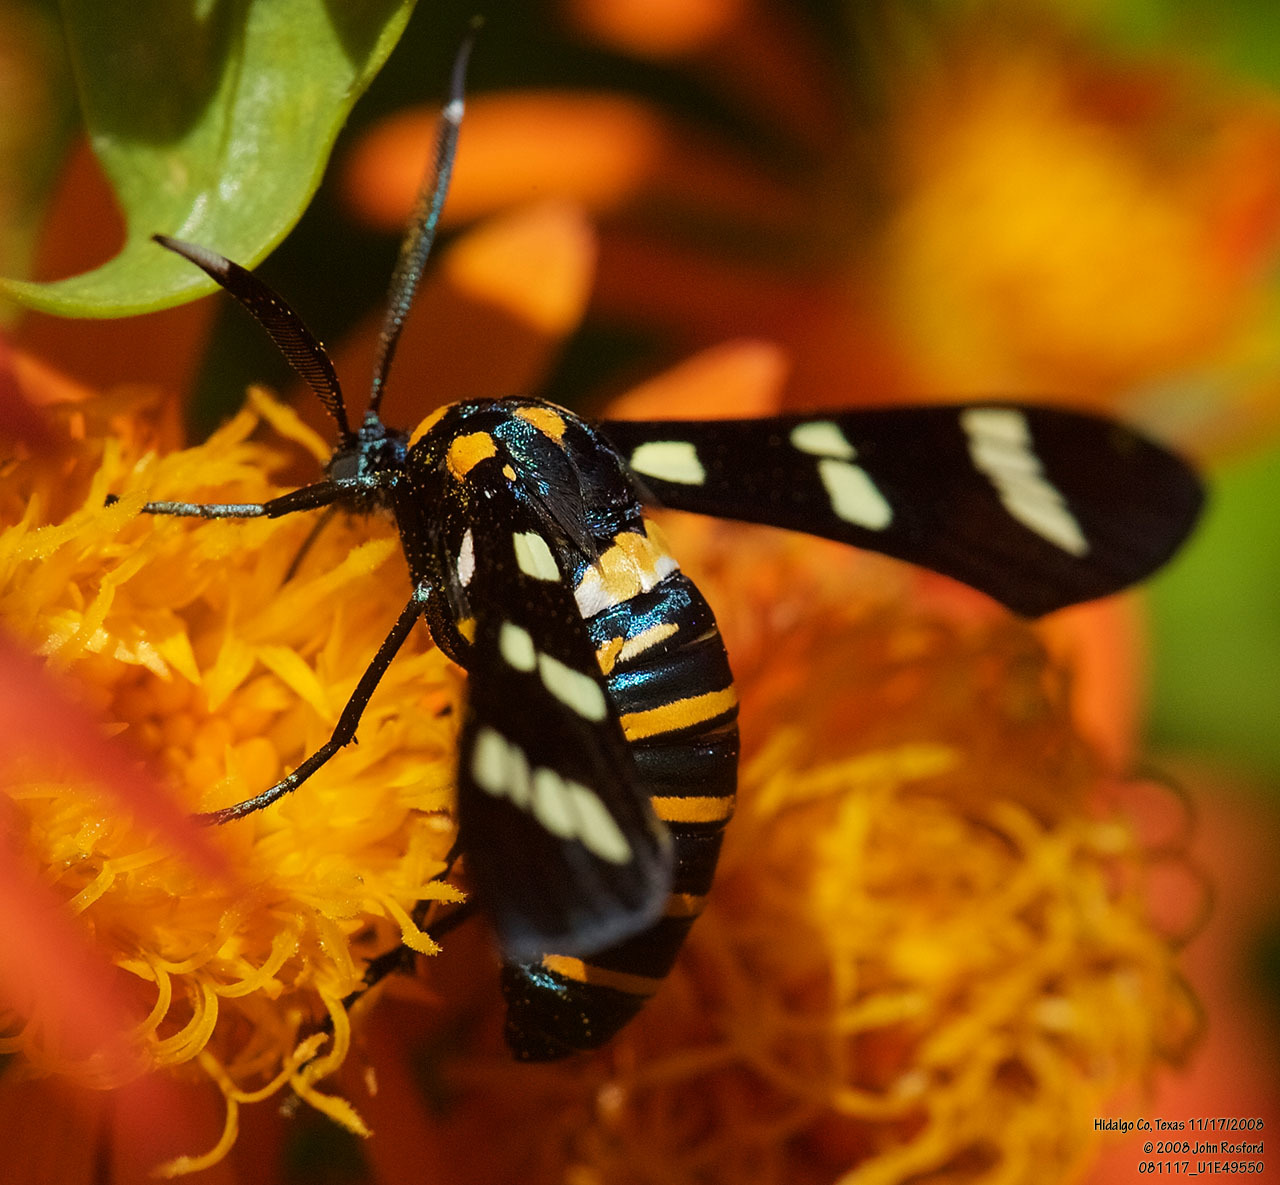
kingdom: Animalia
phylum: Arthropoda
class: Insecta
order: Lepidoptera
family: Erebidae
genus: Syntomeida
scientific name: Syntomeida melanthus
